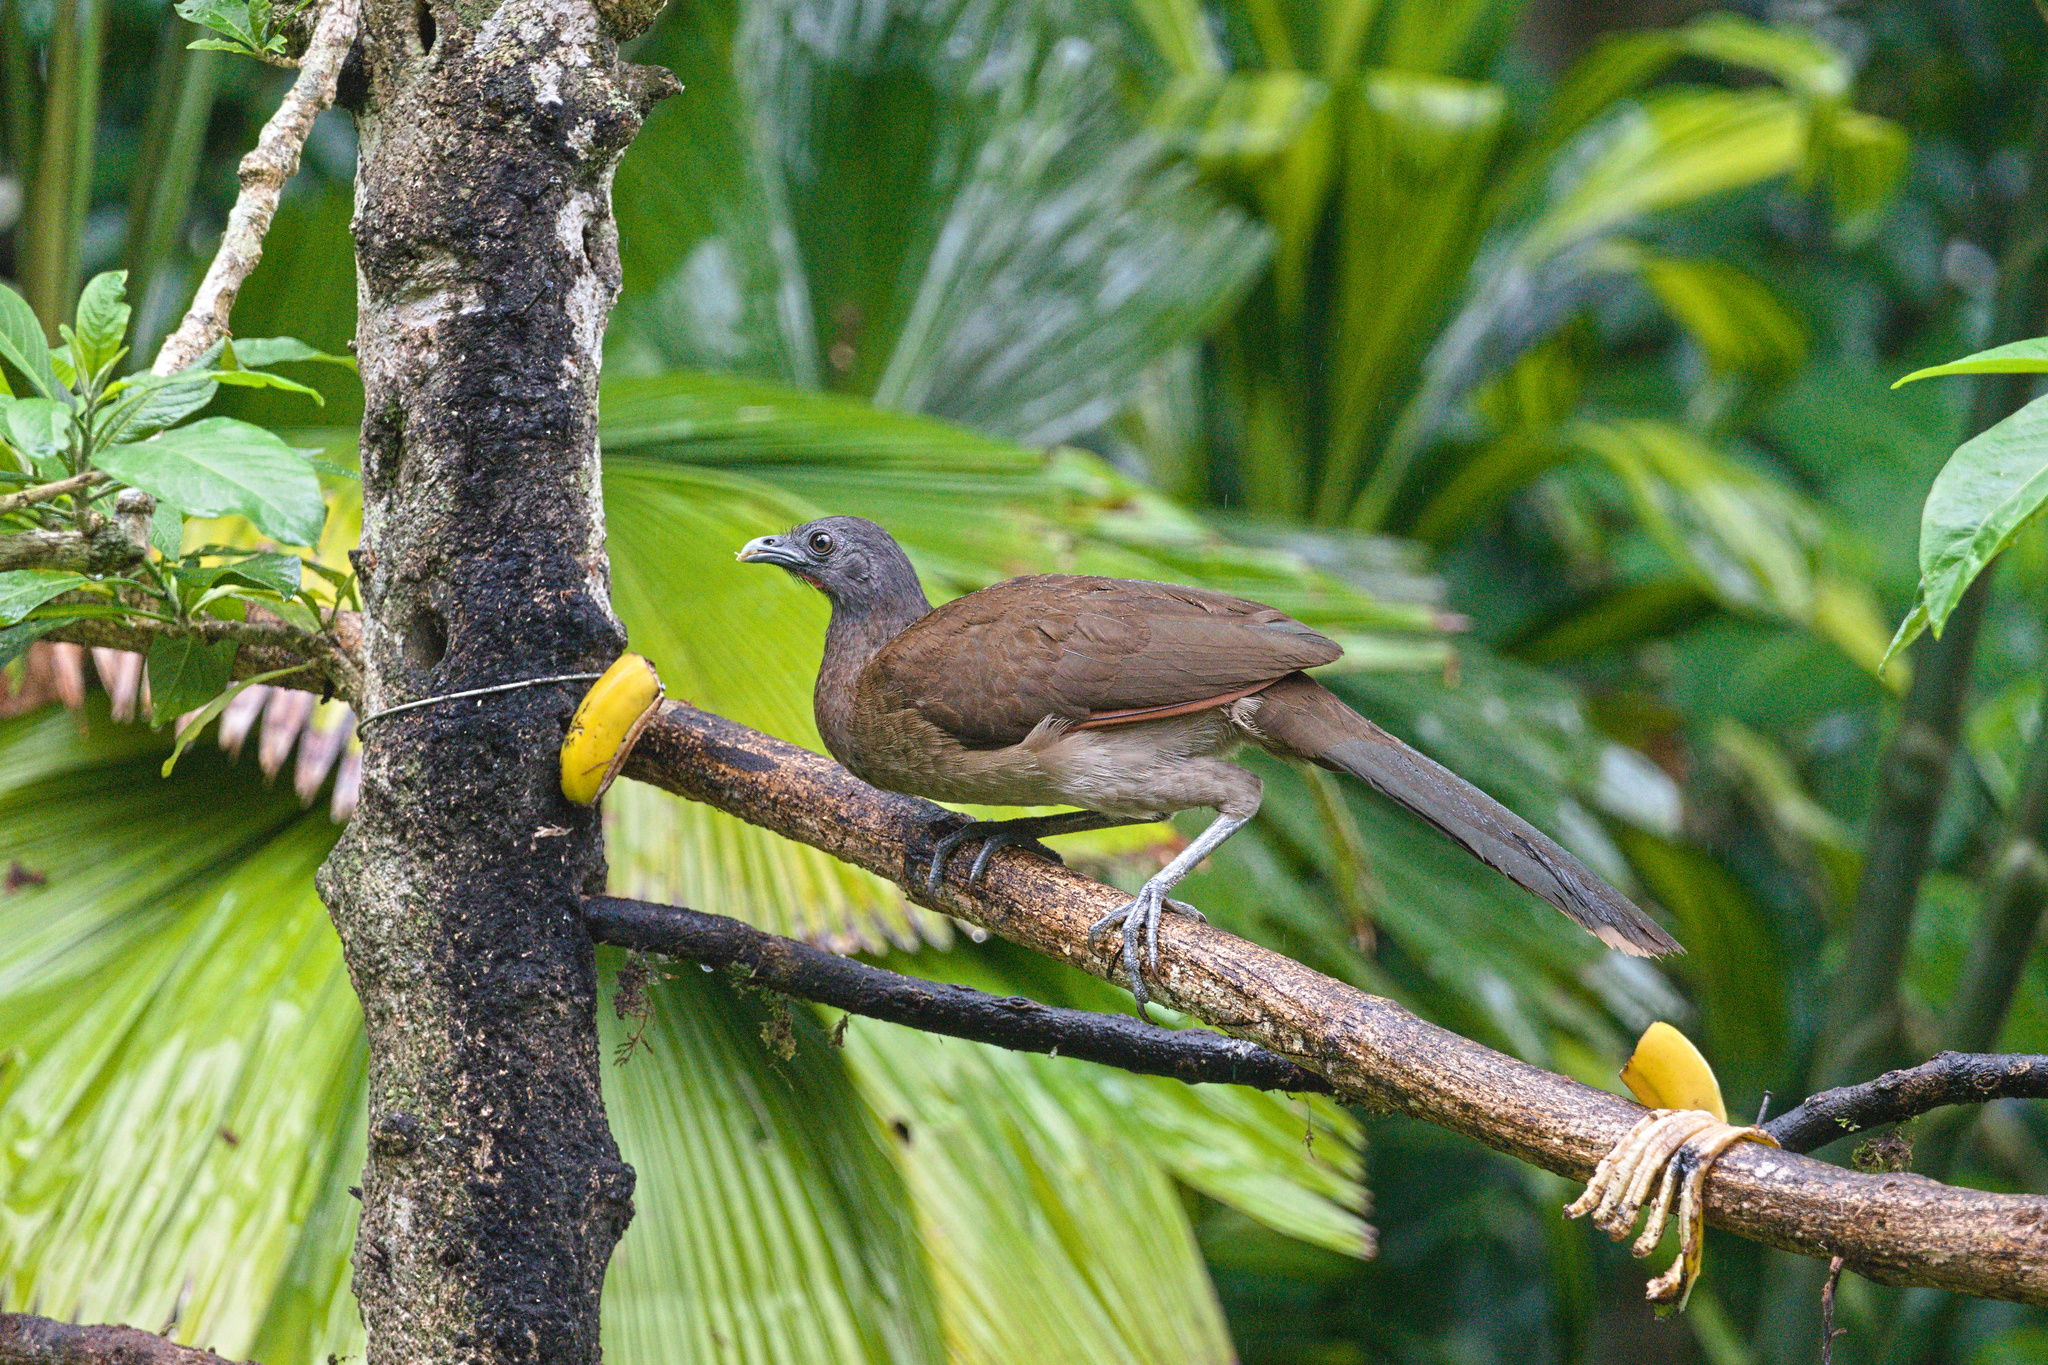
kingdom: Animalia
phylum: Chordata
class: Aves
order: Galliformes
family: Cracidae
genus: Ortalis
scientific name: Ortalis cinereiceps
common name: Grey-headed chachalaca
